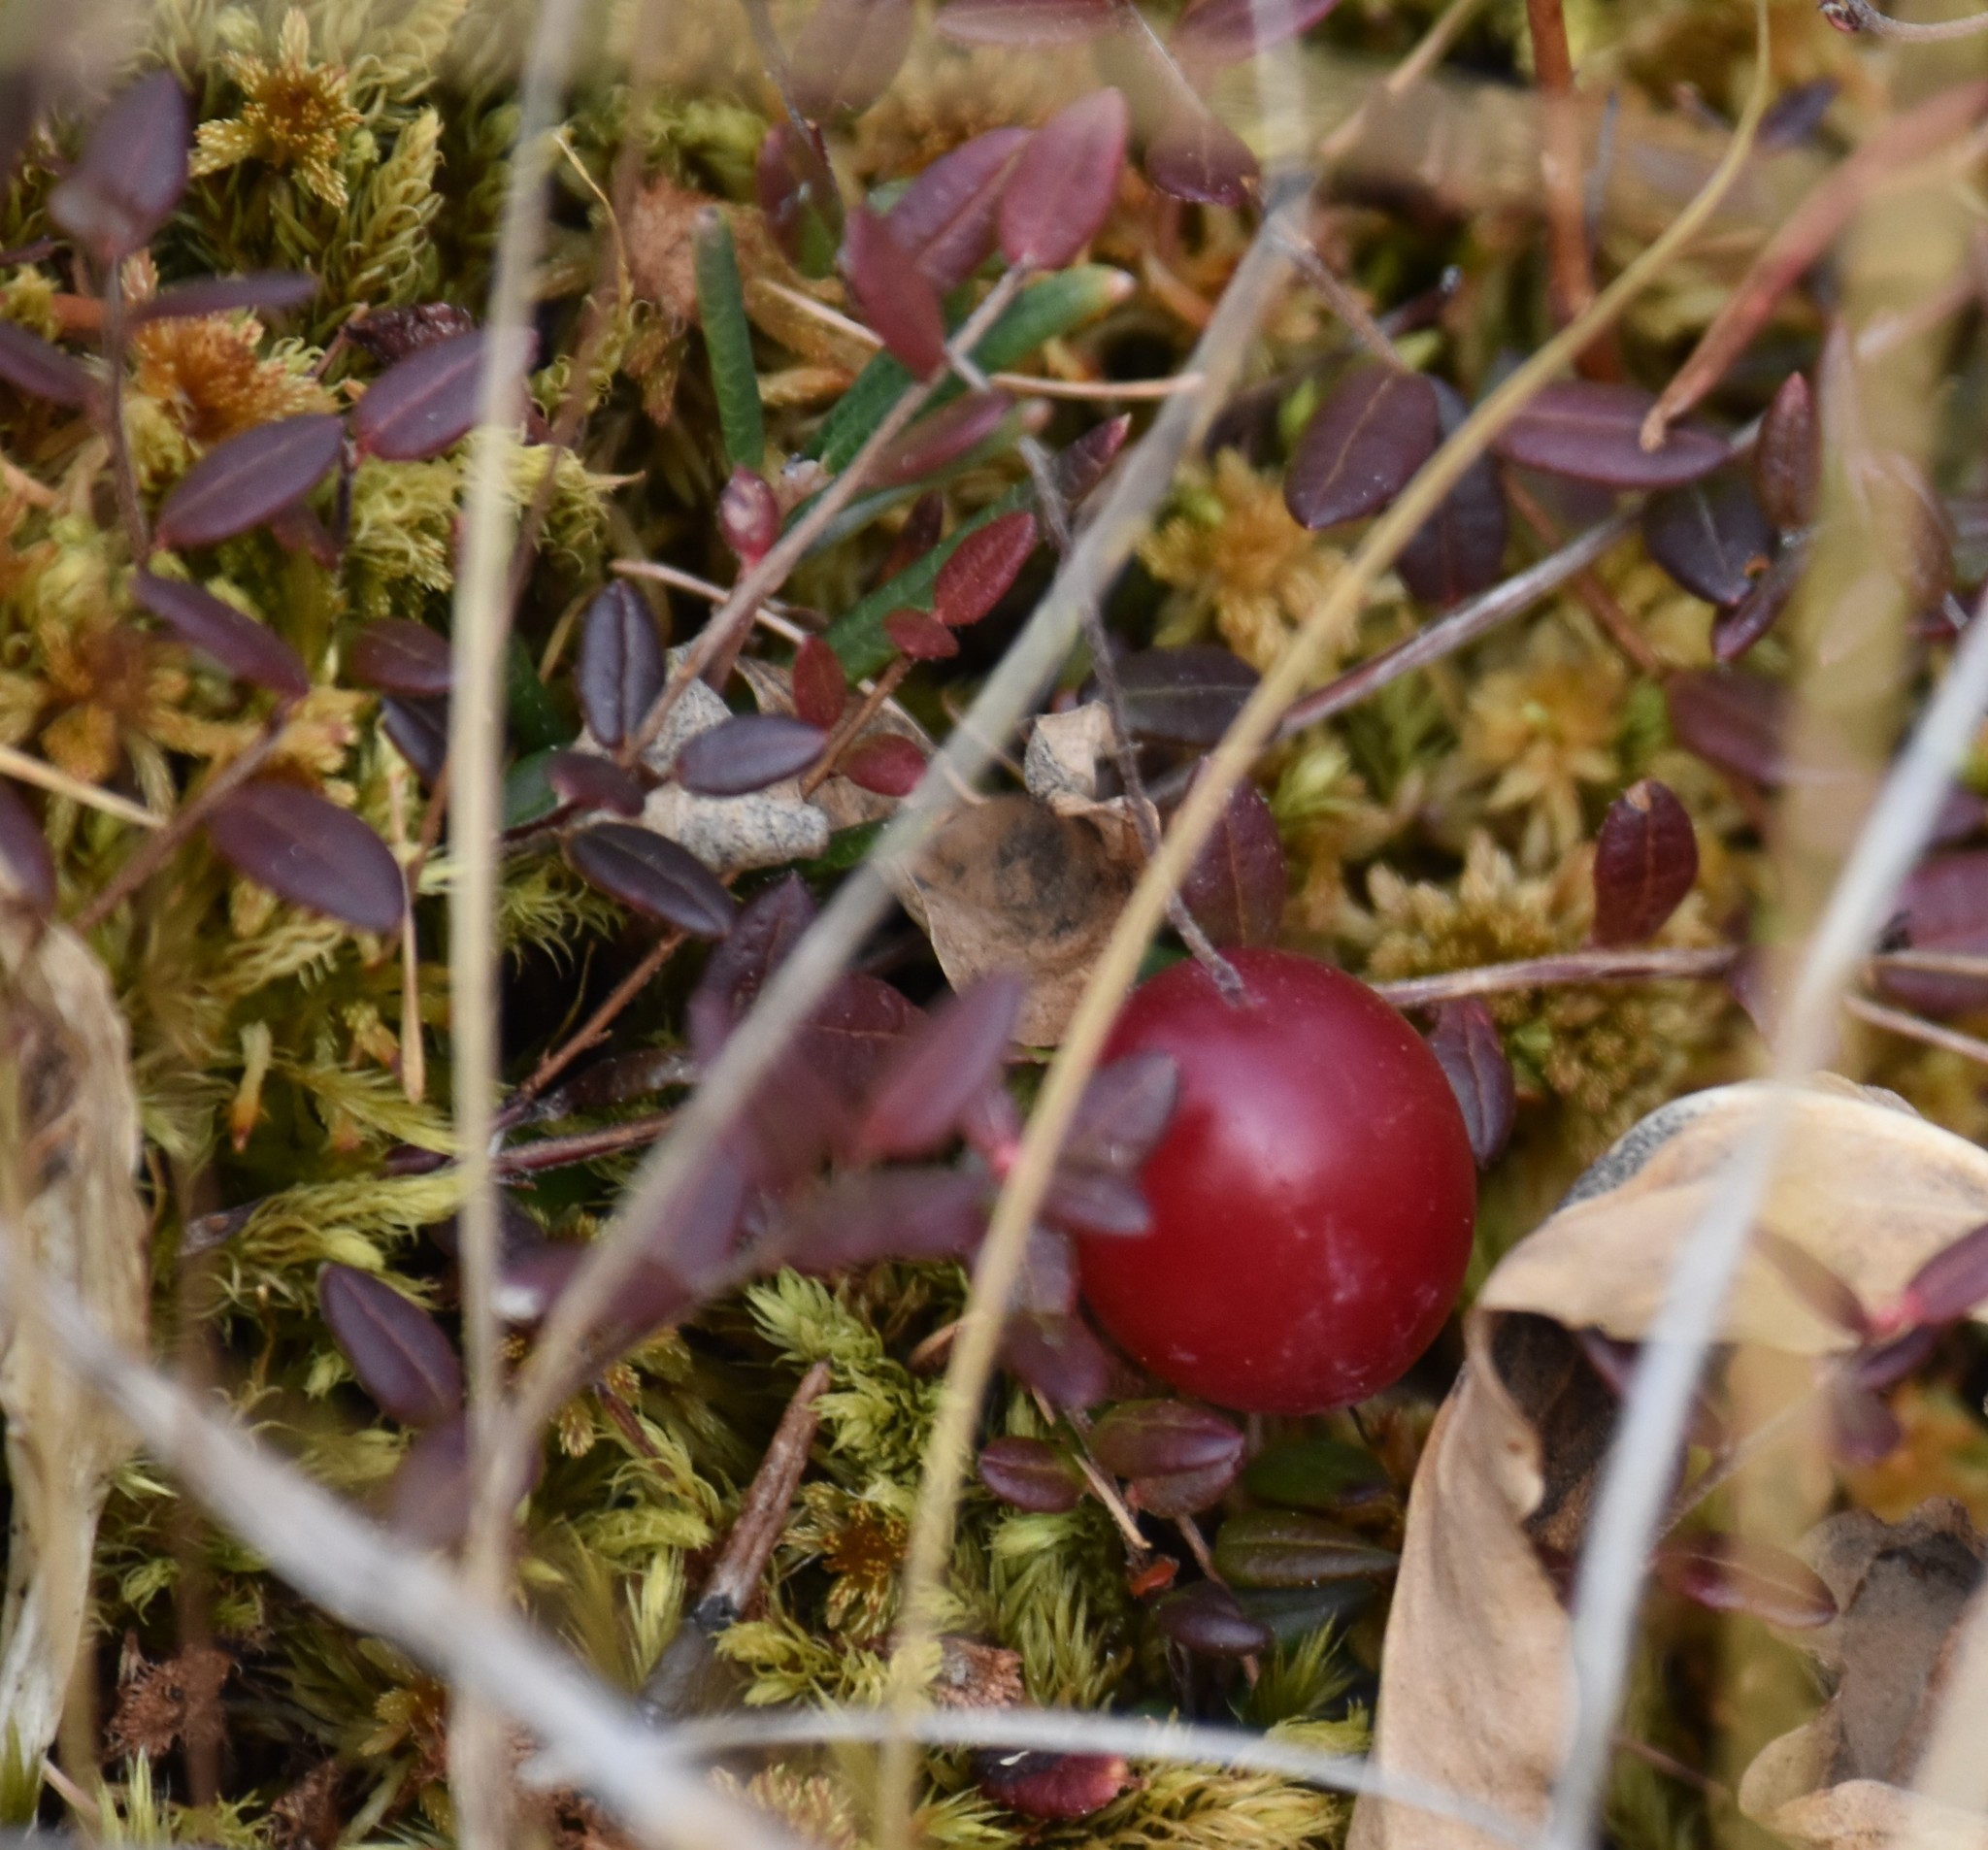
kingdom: Plantae
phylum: Tracheophyta
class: Magnoliopsida
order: Ericales
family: Ericaceae
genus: Vaccinium
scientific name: Vaccinium oxycoccos
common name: Cranberry
